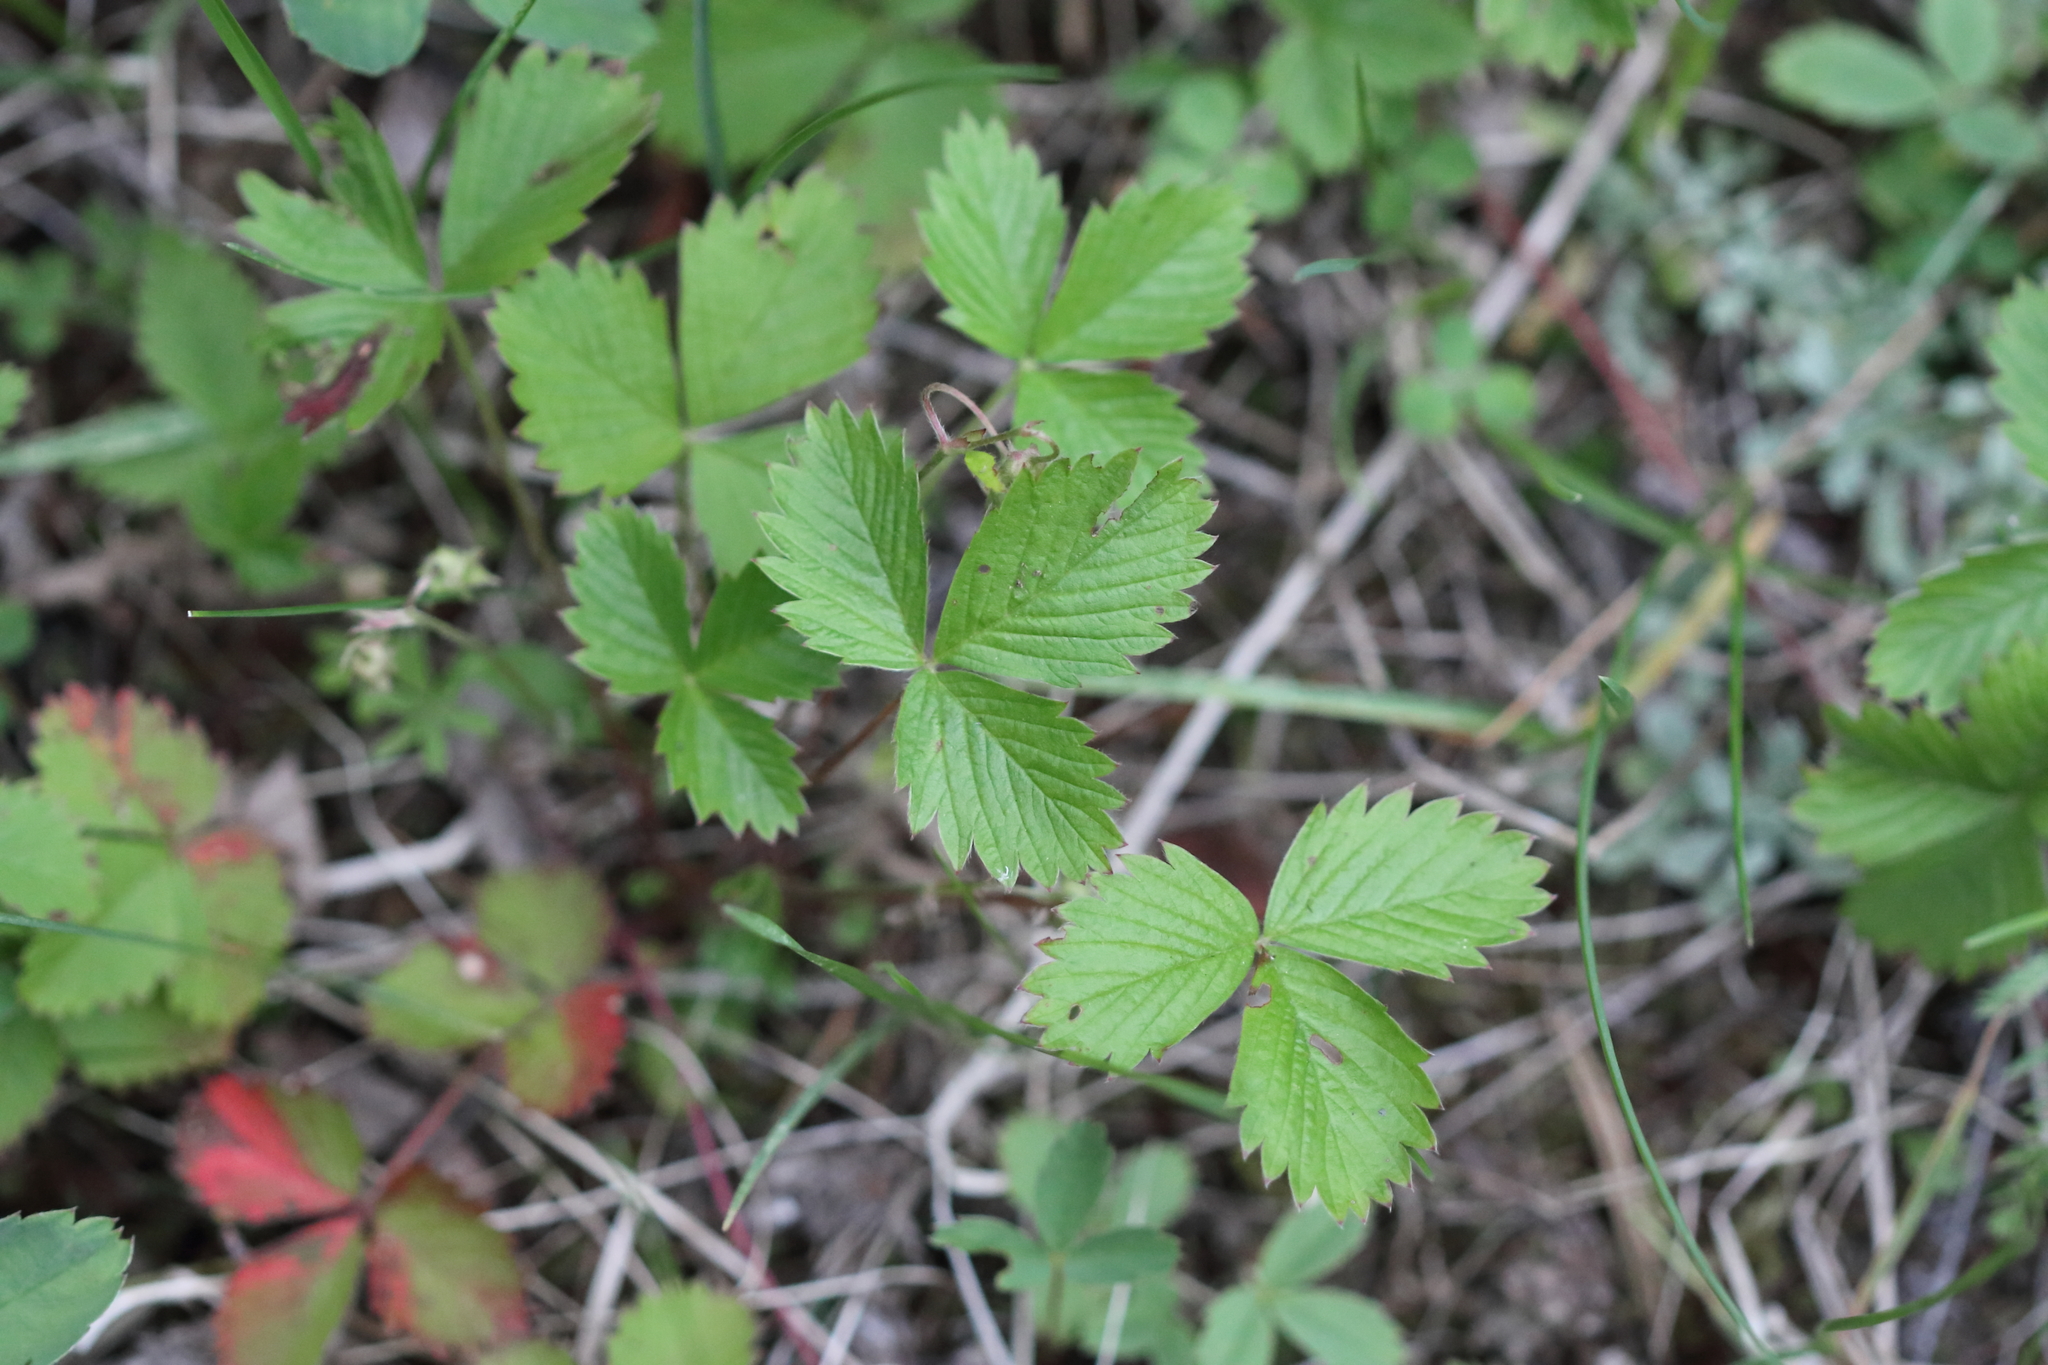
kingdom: Plantae
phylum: Tracheophyta
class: Magnoliopsida
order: Rosales
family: Rosaceae
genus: Fragaria
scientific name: Fragaria vesca
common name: Wild strawberry
